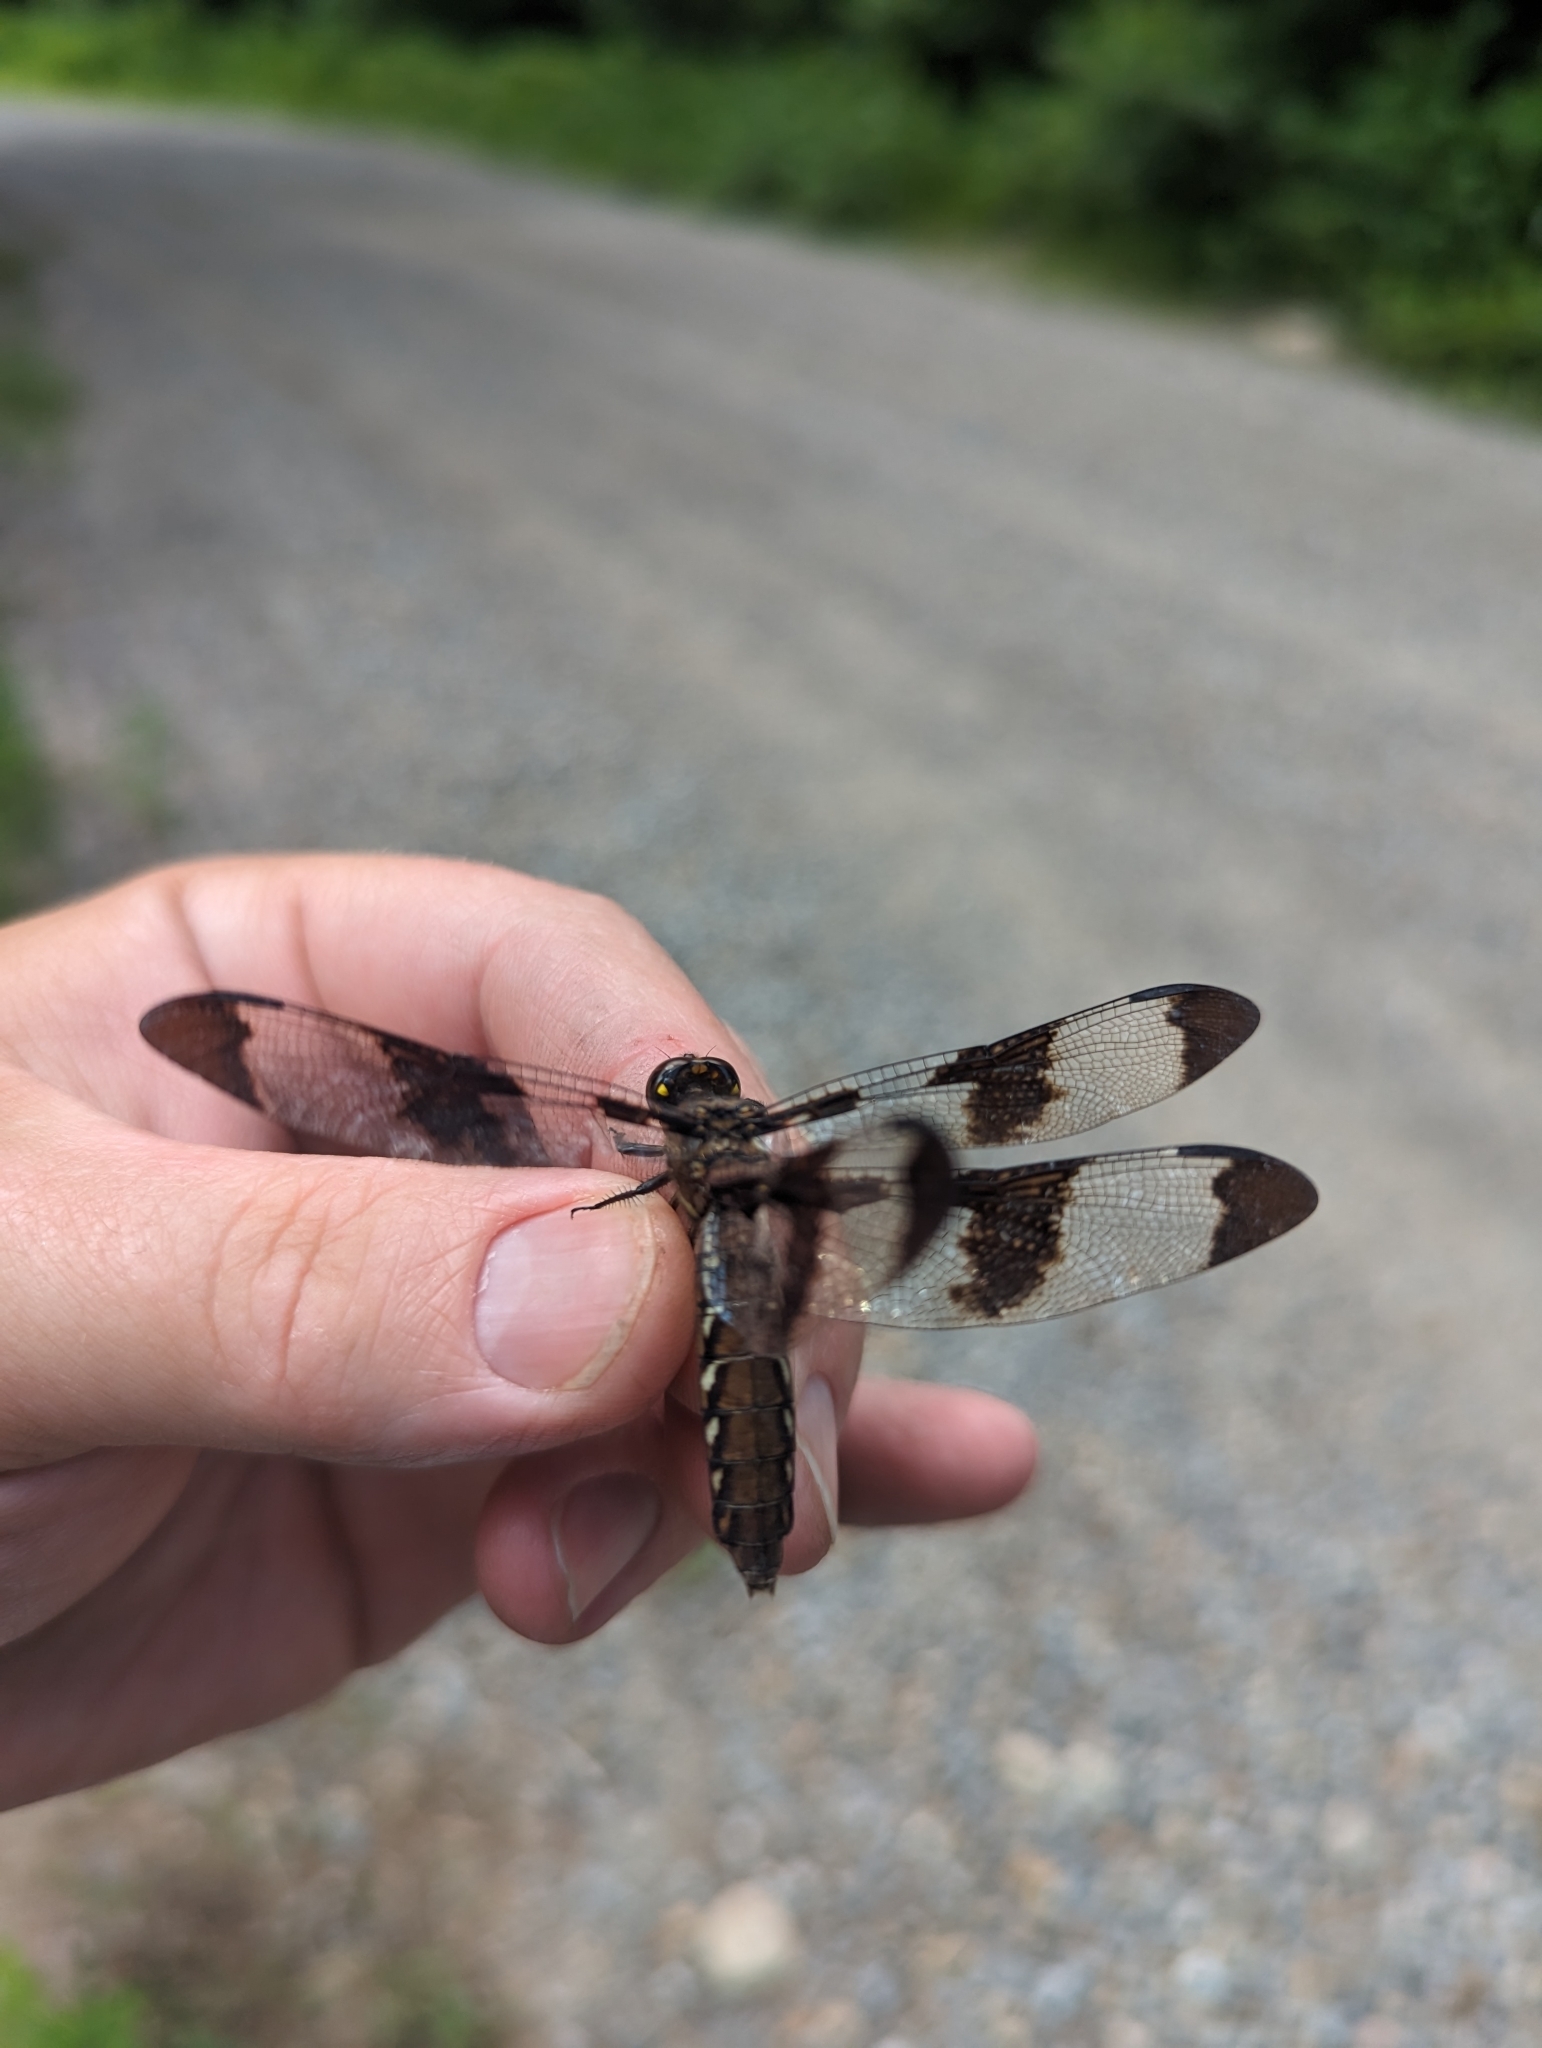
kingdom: Animalia
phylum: Arthropoda
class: Insecta
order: Odonata
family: Libellulidae
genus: Plathemis
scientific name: Plathemis lydia
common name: Common whitetail
